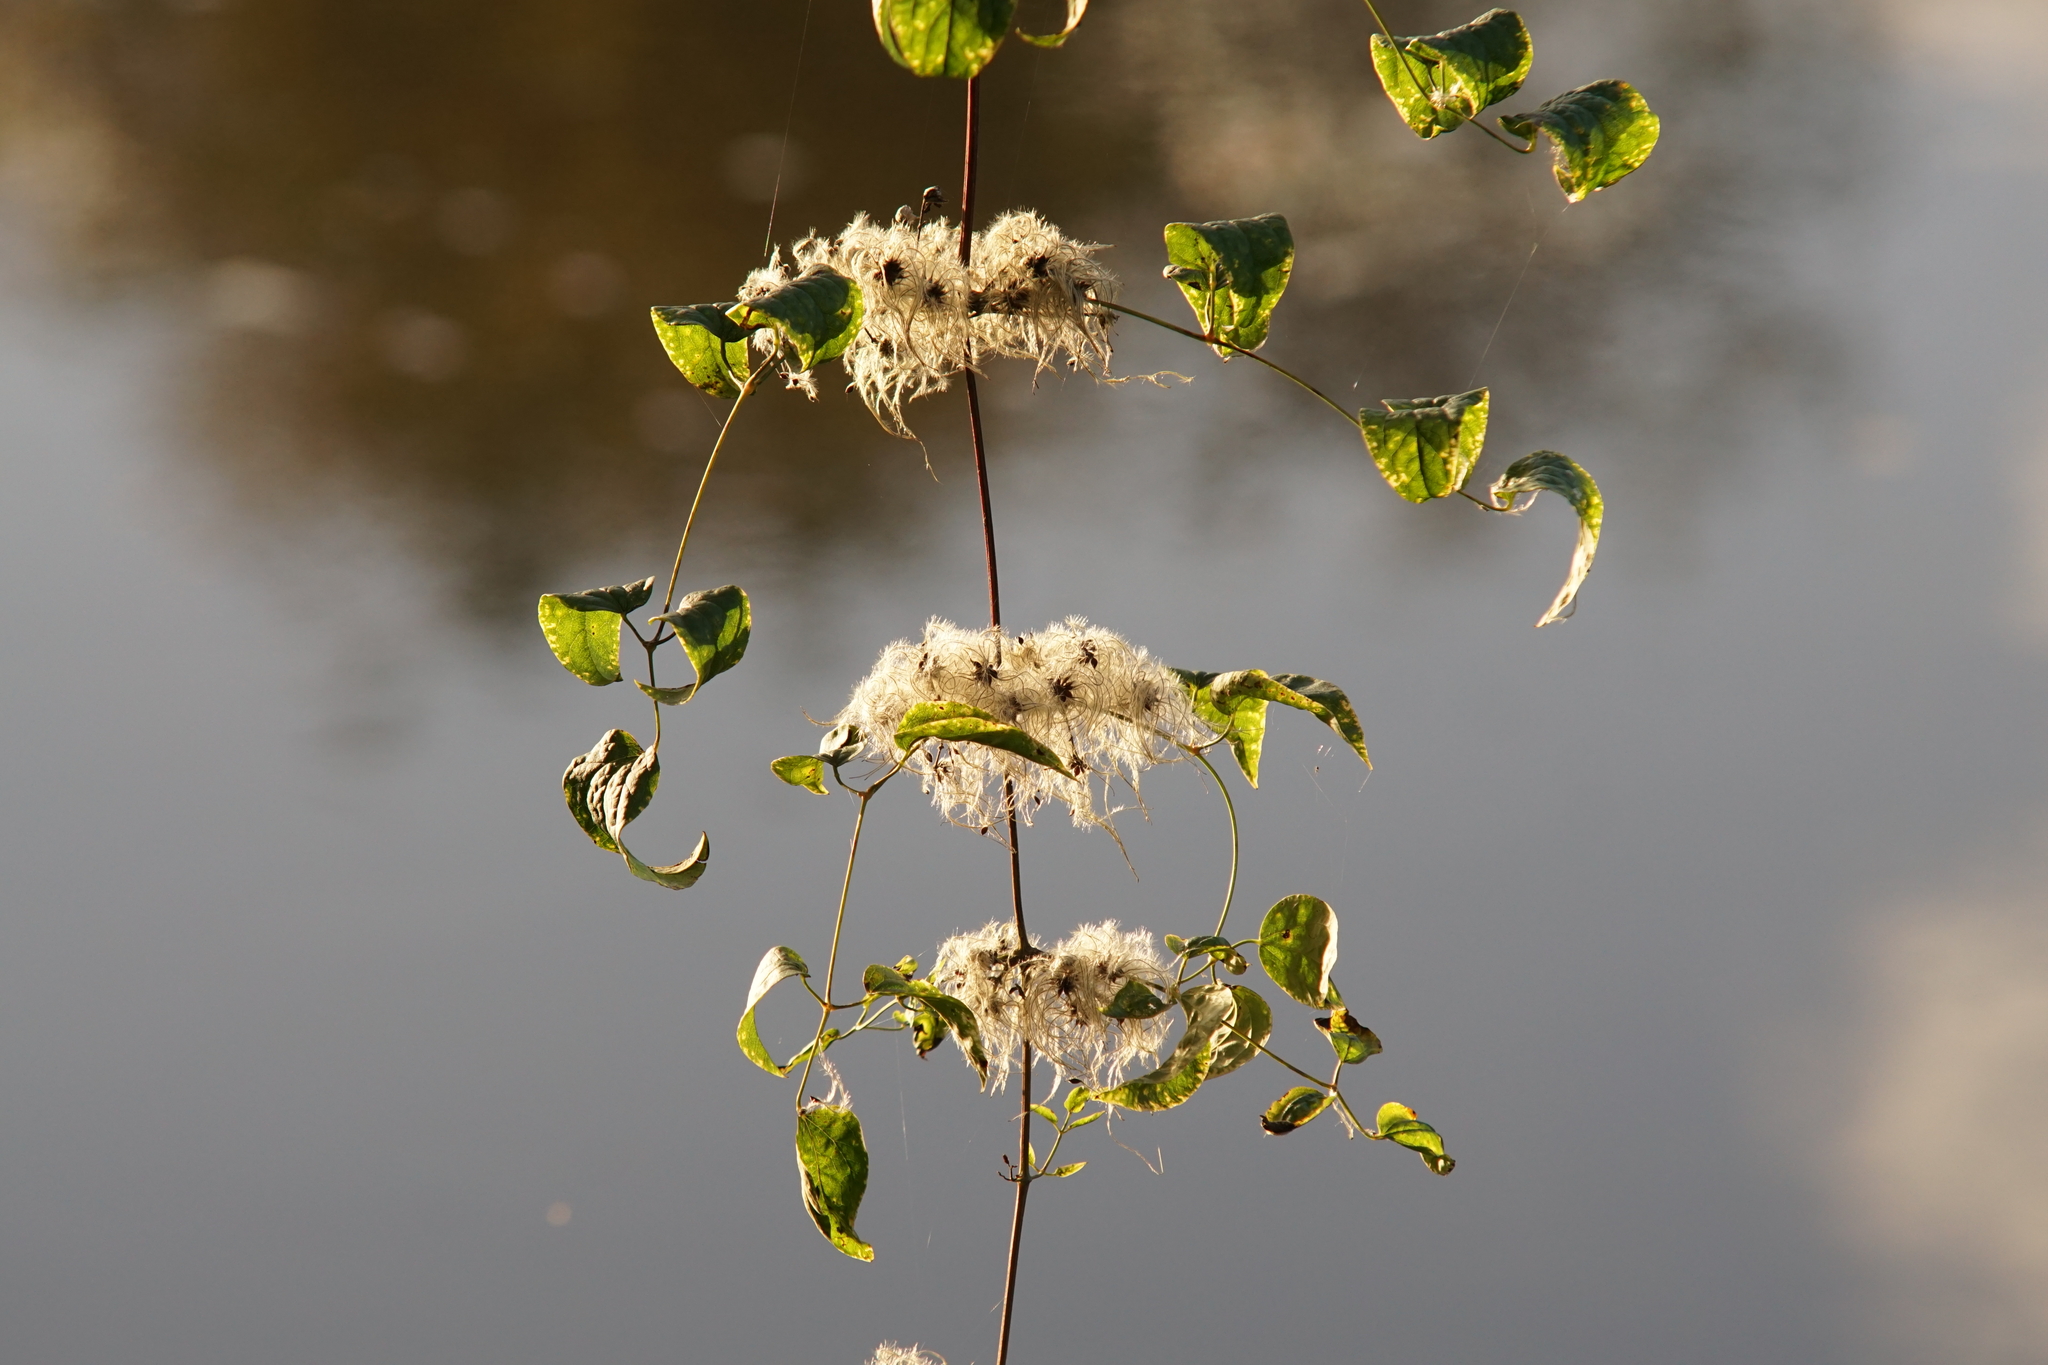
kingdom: Plantae
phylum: Tracheophyta
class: Magnoliopsida
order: Ranunculales
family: Ranunculaceae
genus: Clematis
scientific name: Clematis vitalba
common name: Evergreen clematis
